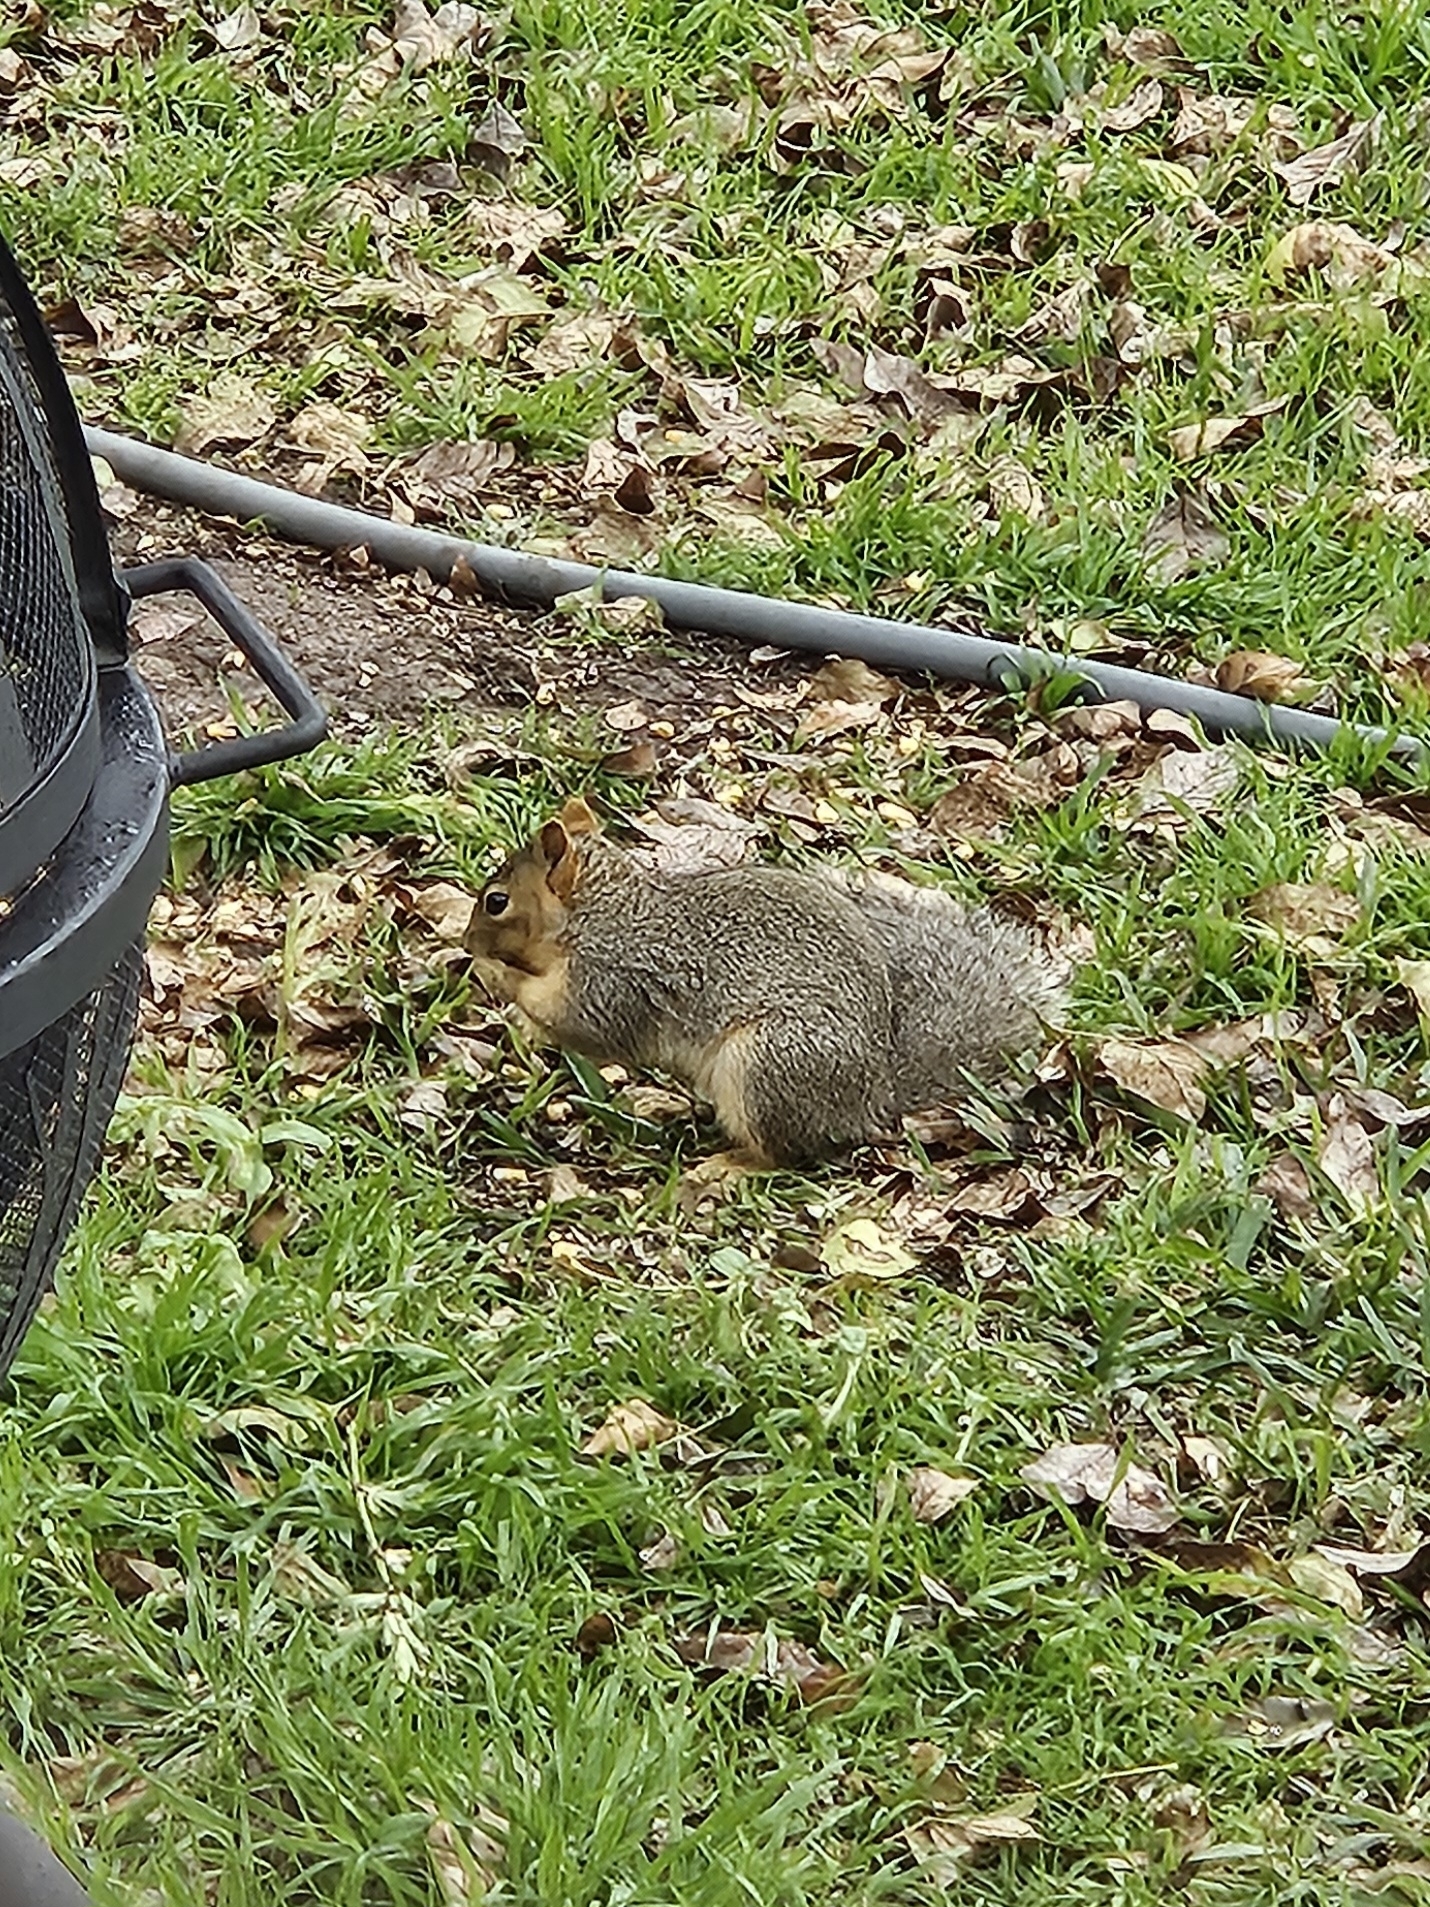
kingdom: Animalia
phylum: Chordata
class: Mammalia
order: Rodentia
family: Sciuridae
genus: Sciurus
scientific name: Sciurus niger
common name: Fox squirrel
